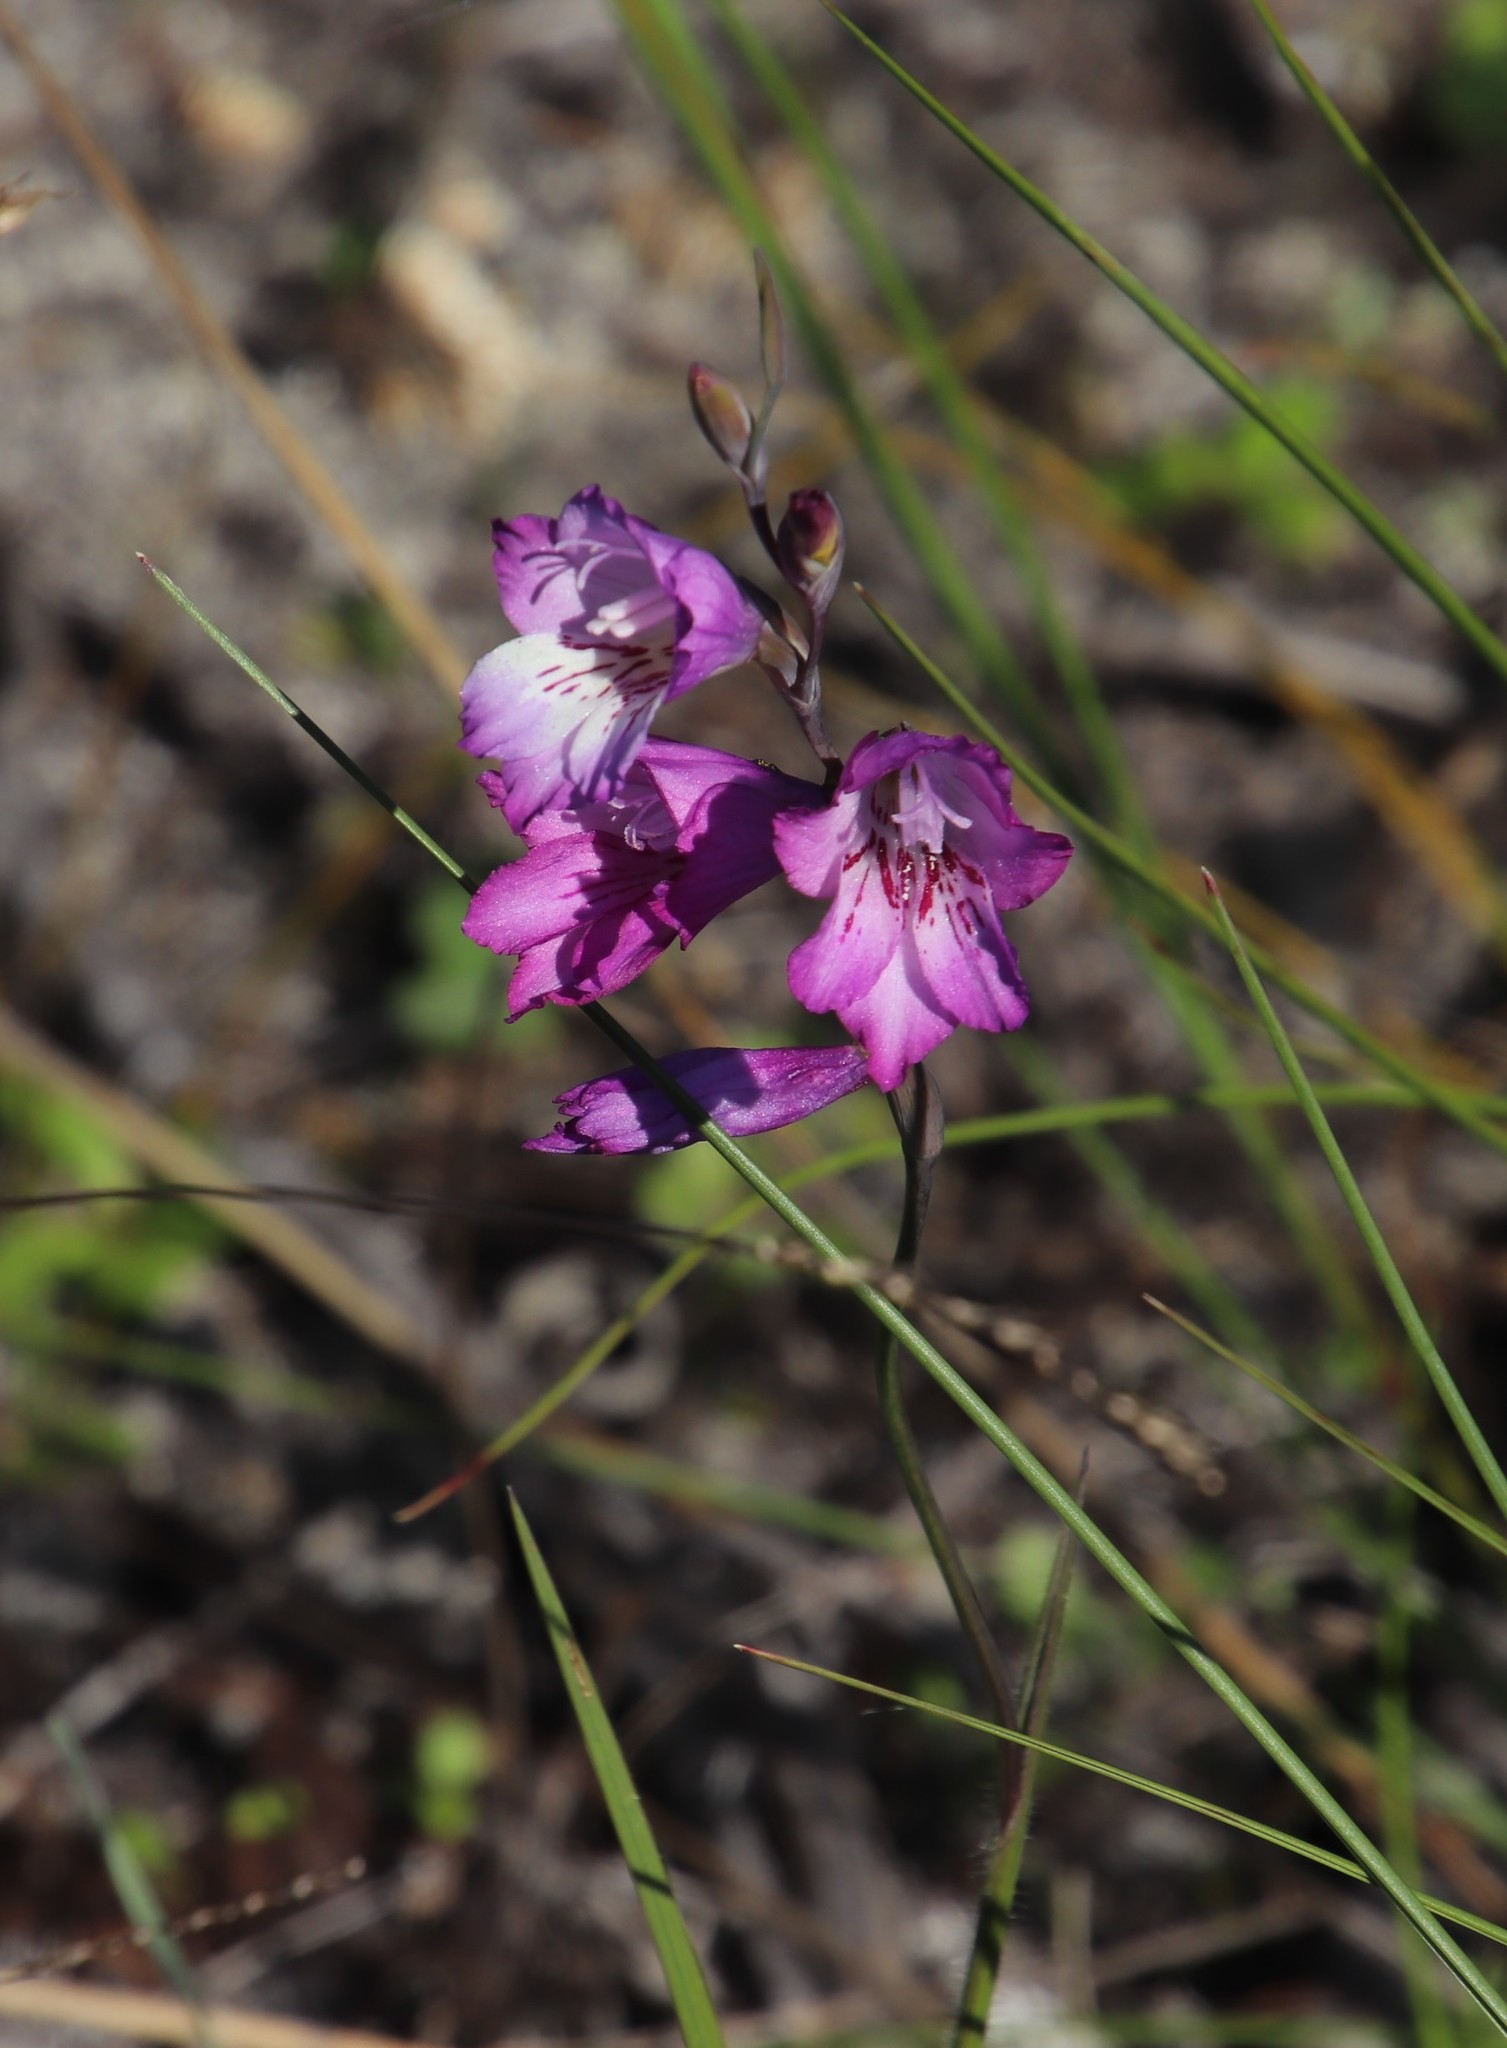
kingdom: Plantae
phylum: Tracheophyta
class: Liliopsida
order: Asparagales
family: Iridaceae
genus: Gladiolus
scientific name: Gladiolus hirsutus
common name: Small pink afrikaner
